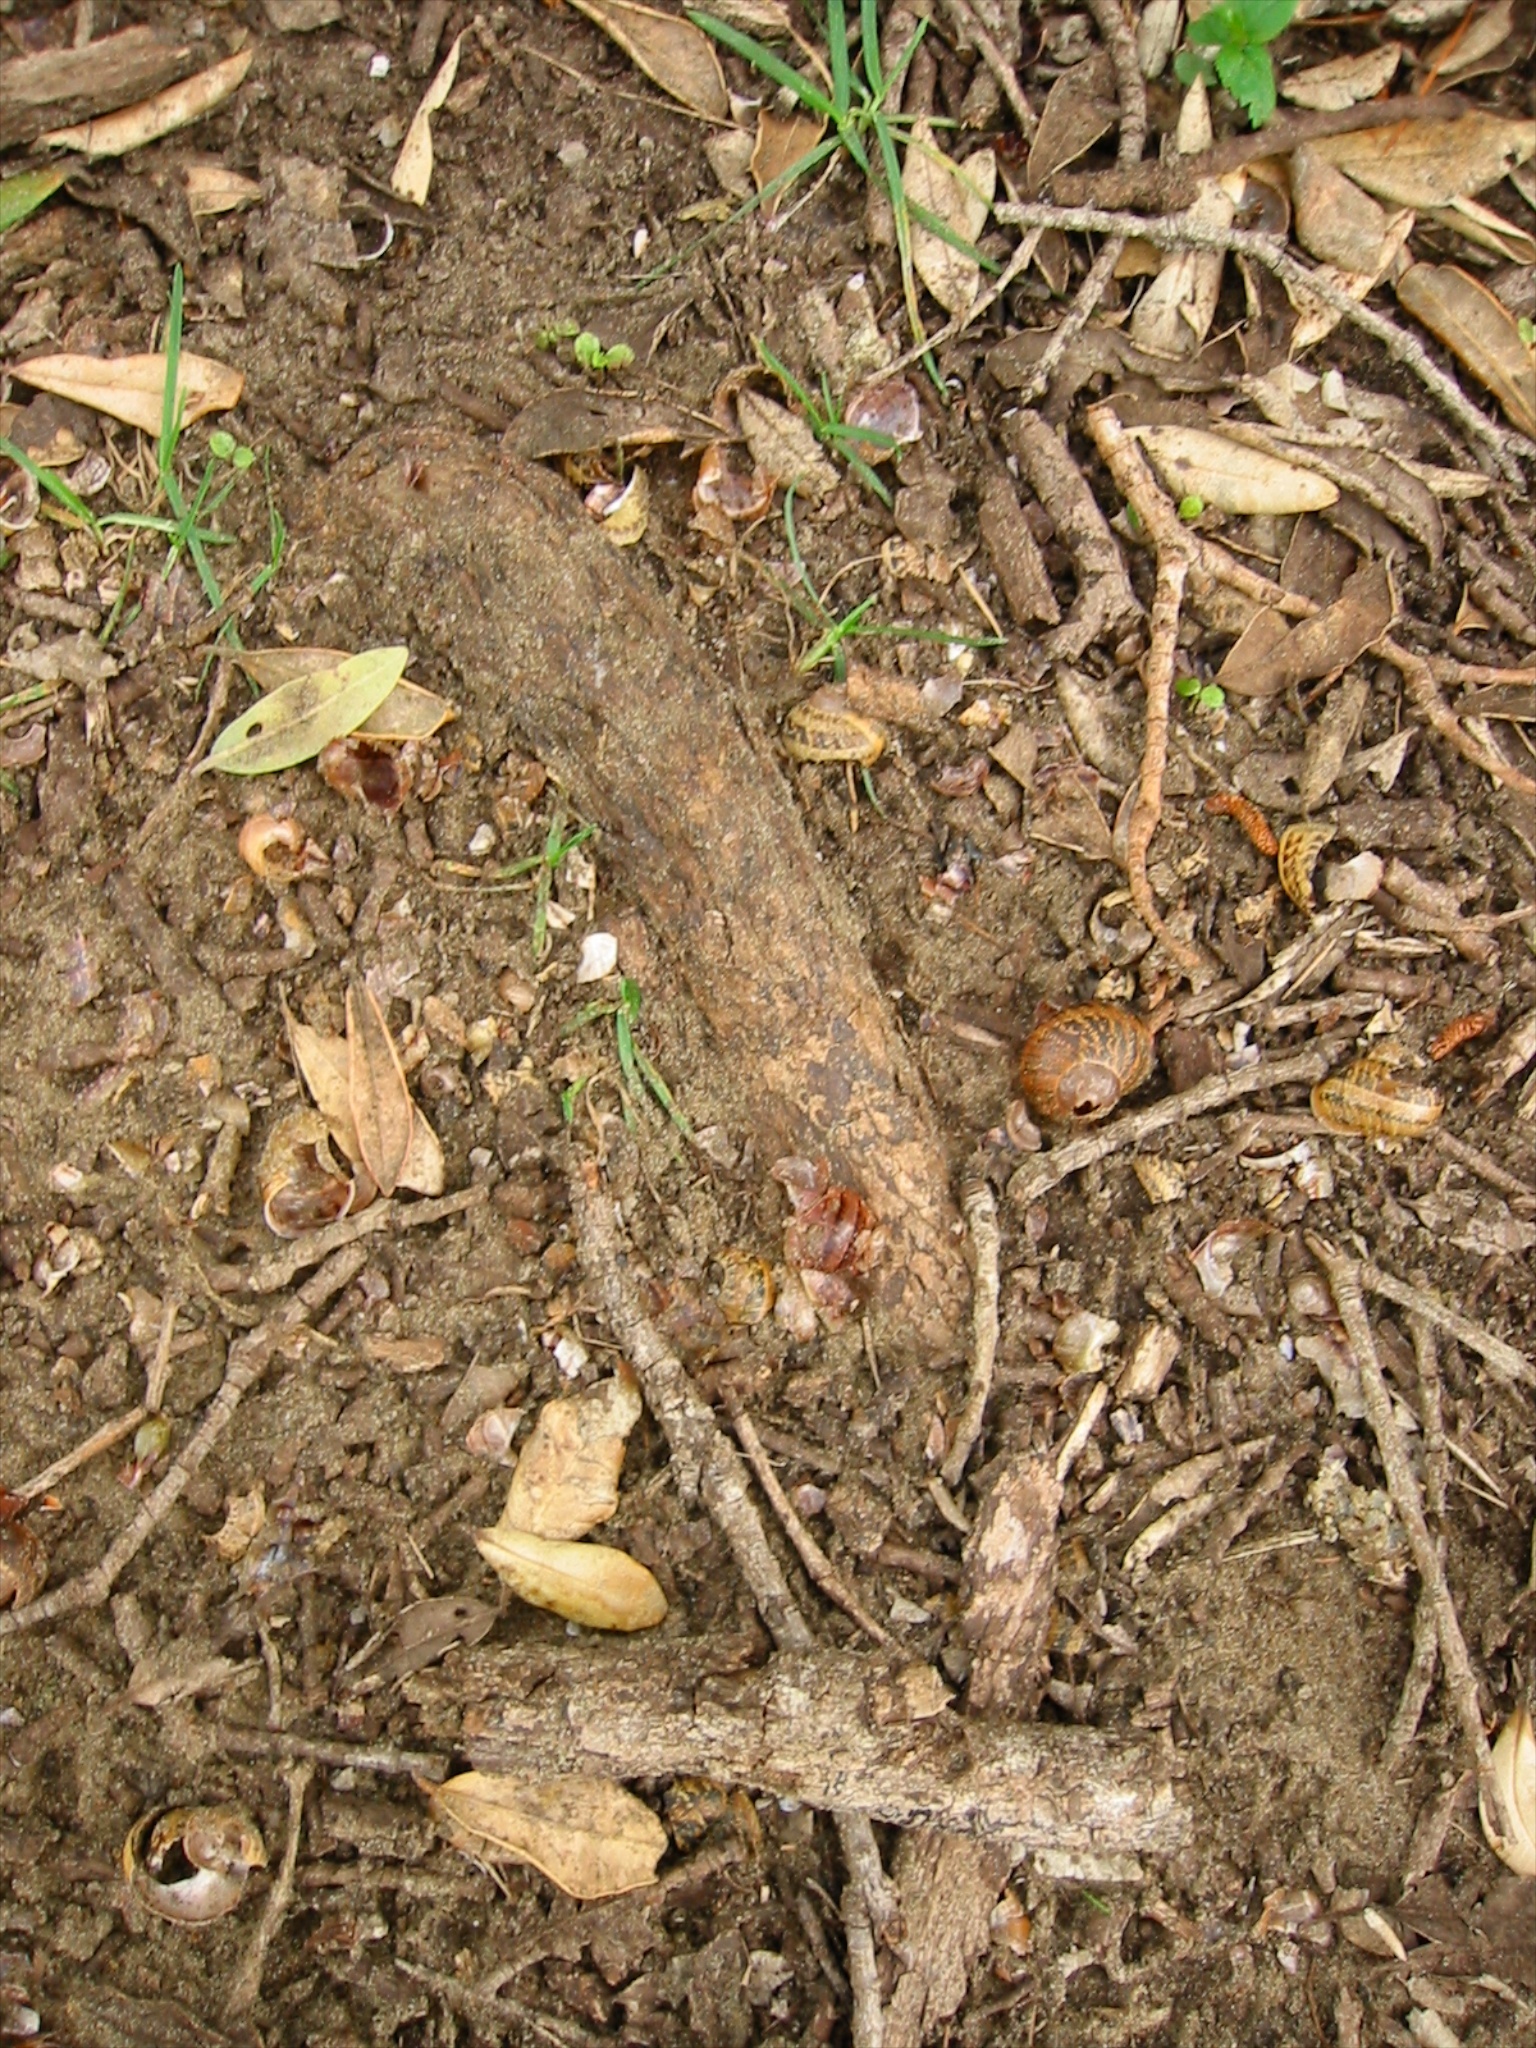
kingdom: Animalia
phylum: Mollusca
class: Gastropoda
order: Stylommatophora
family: Helicidae
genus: Cornu
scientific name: Cornu aspersum
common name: Brown garden snail
